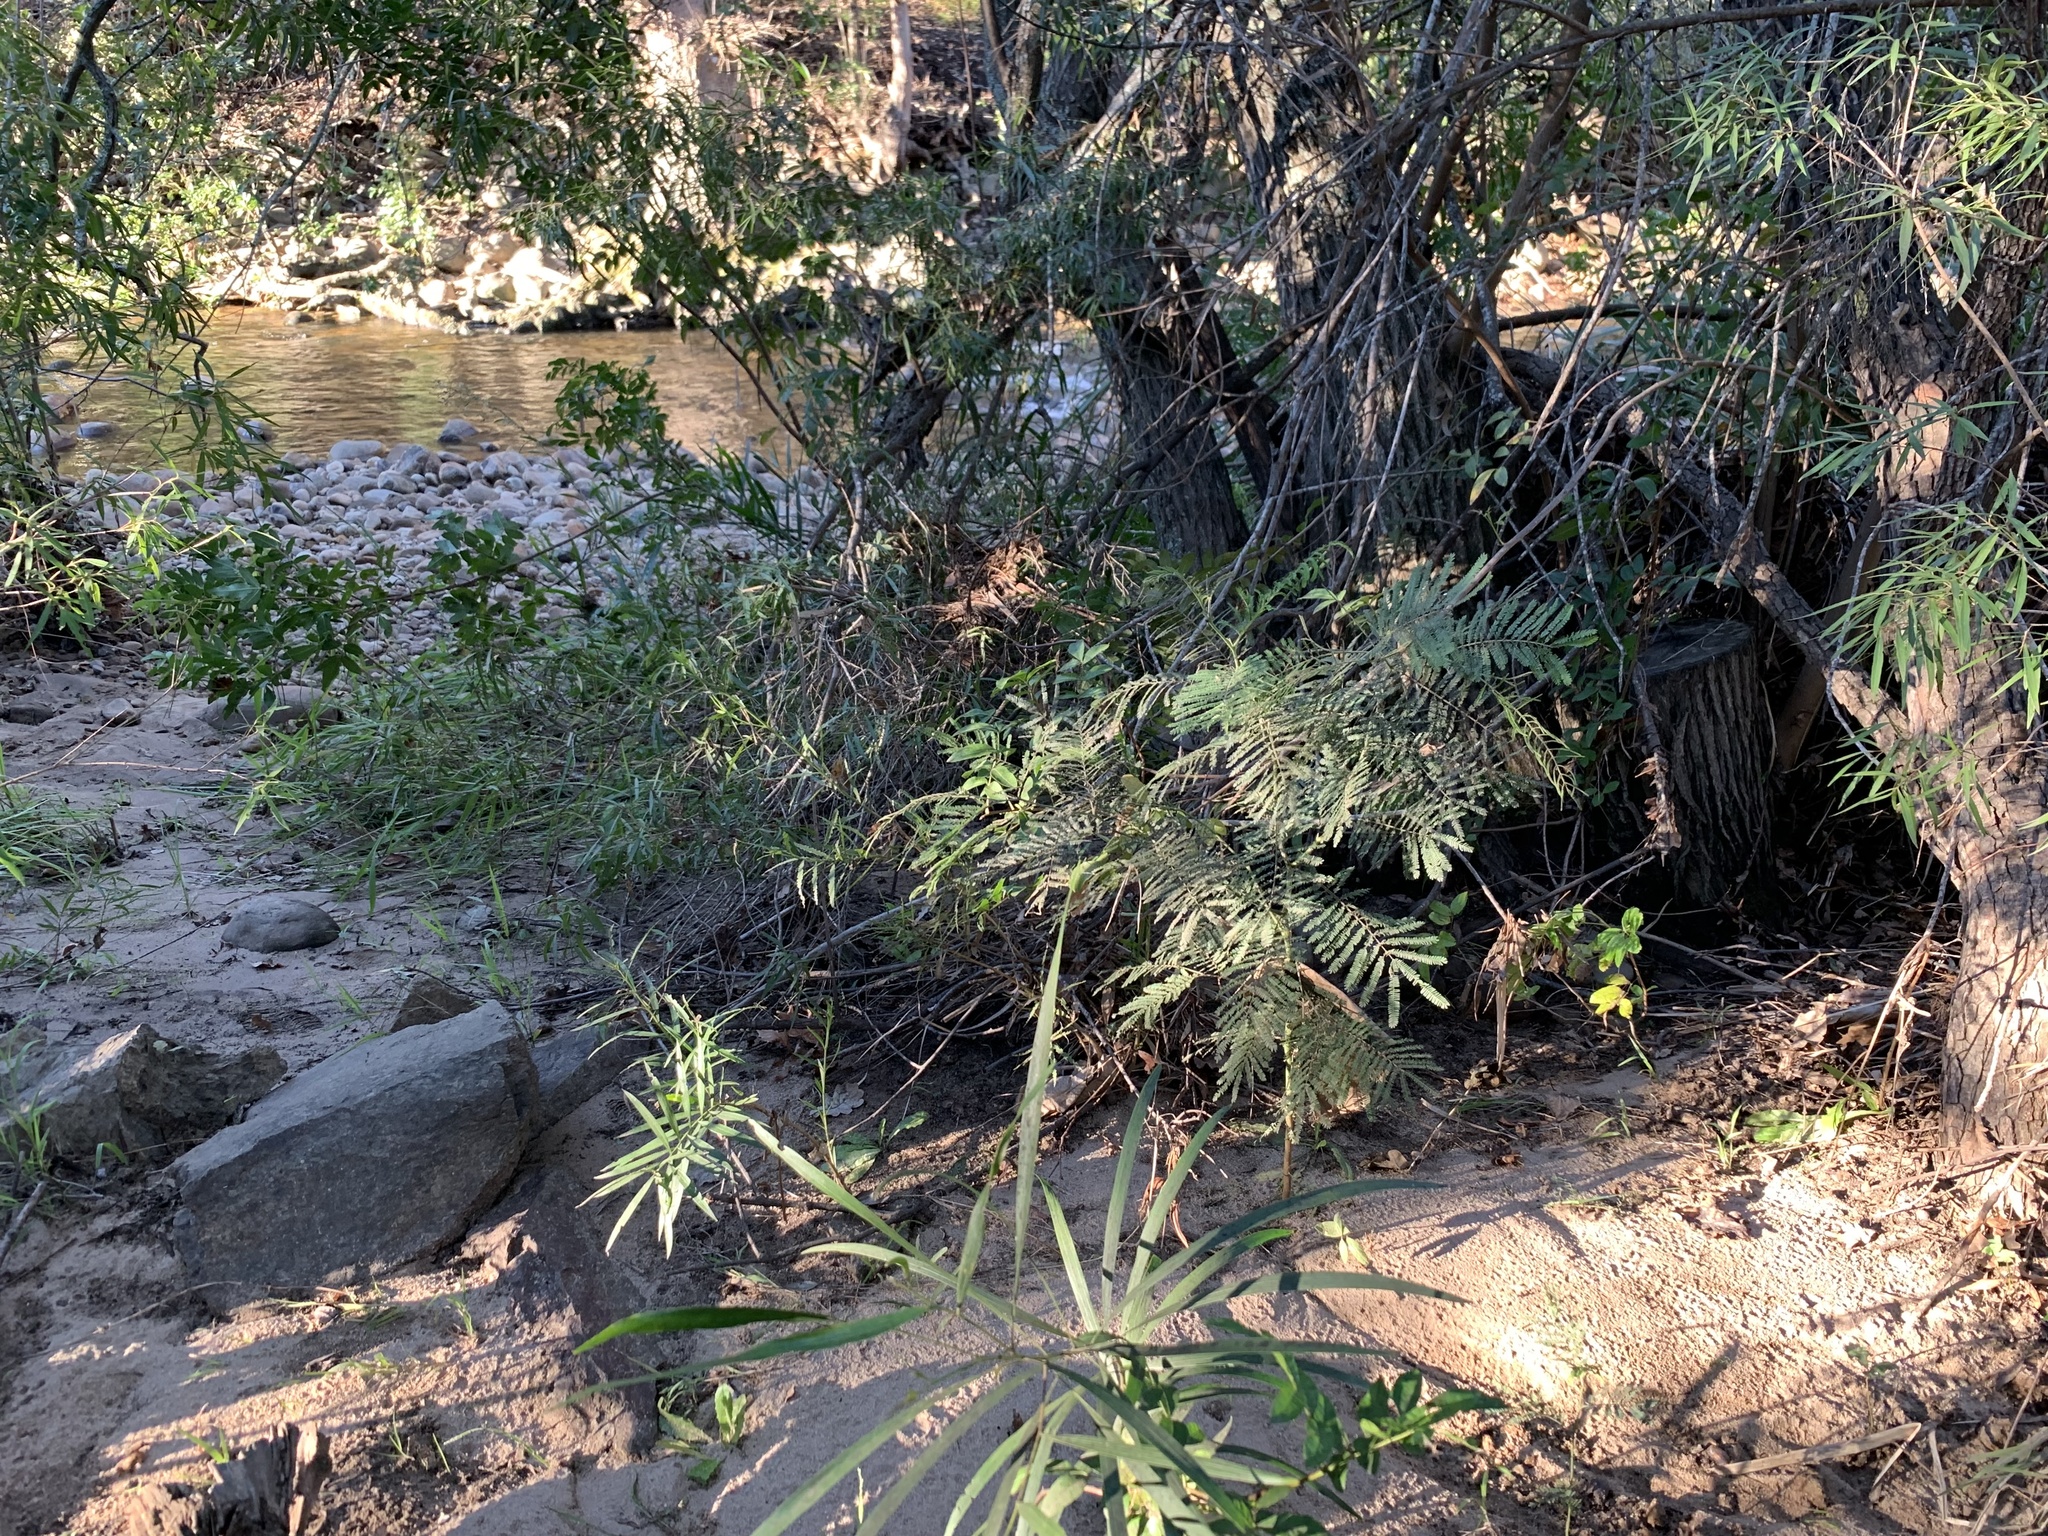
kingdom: Plantae
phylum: Tracheophyta
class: Magnoliopsida
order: Fabales
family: Fabaceae
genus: Acacia
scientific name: Acacia mearnsii
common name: Black wattle
